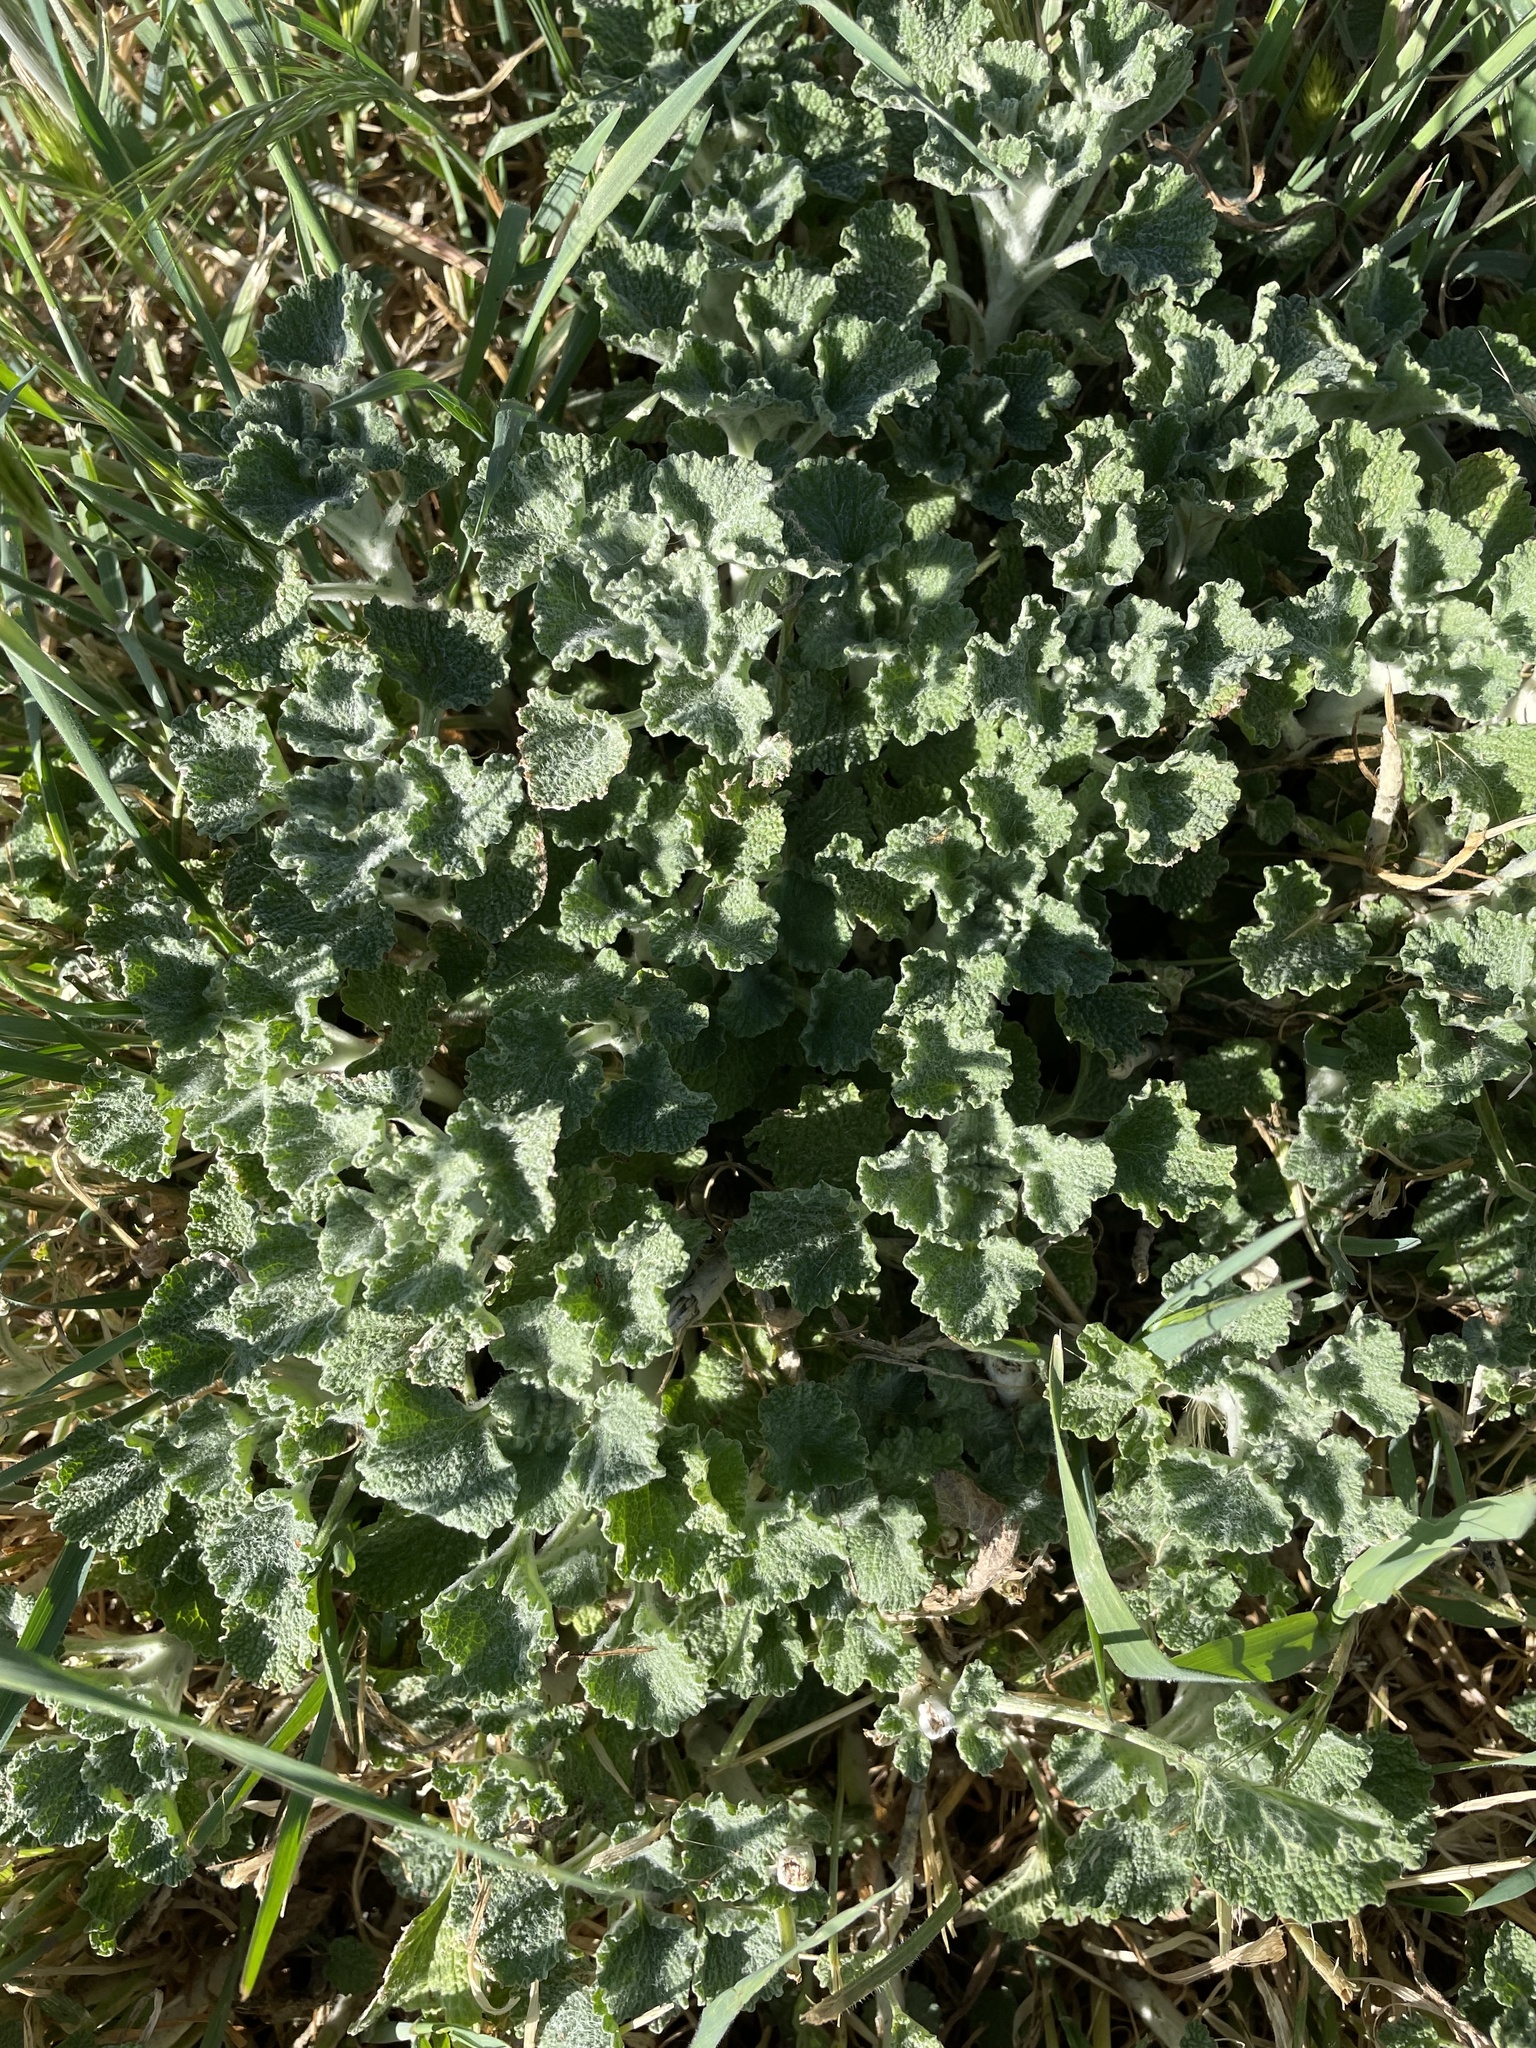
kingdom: Plantae
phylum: Tracheophyta
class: Magnoliopsida
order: Lamiales
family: Lamiaceae
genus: Marrubium
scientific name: Marrubium vulgare
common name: Horehound
